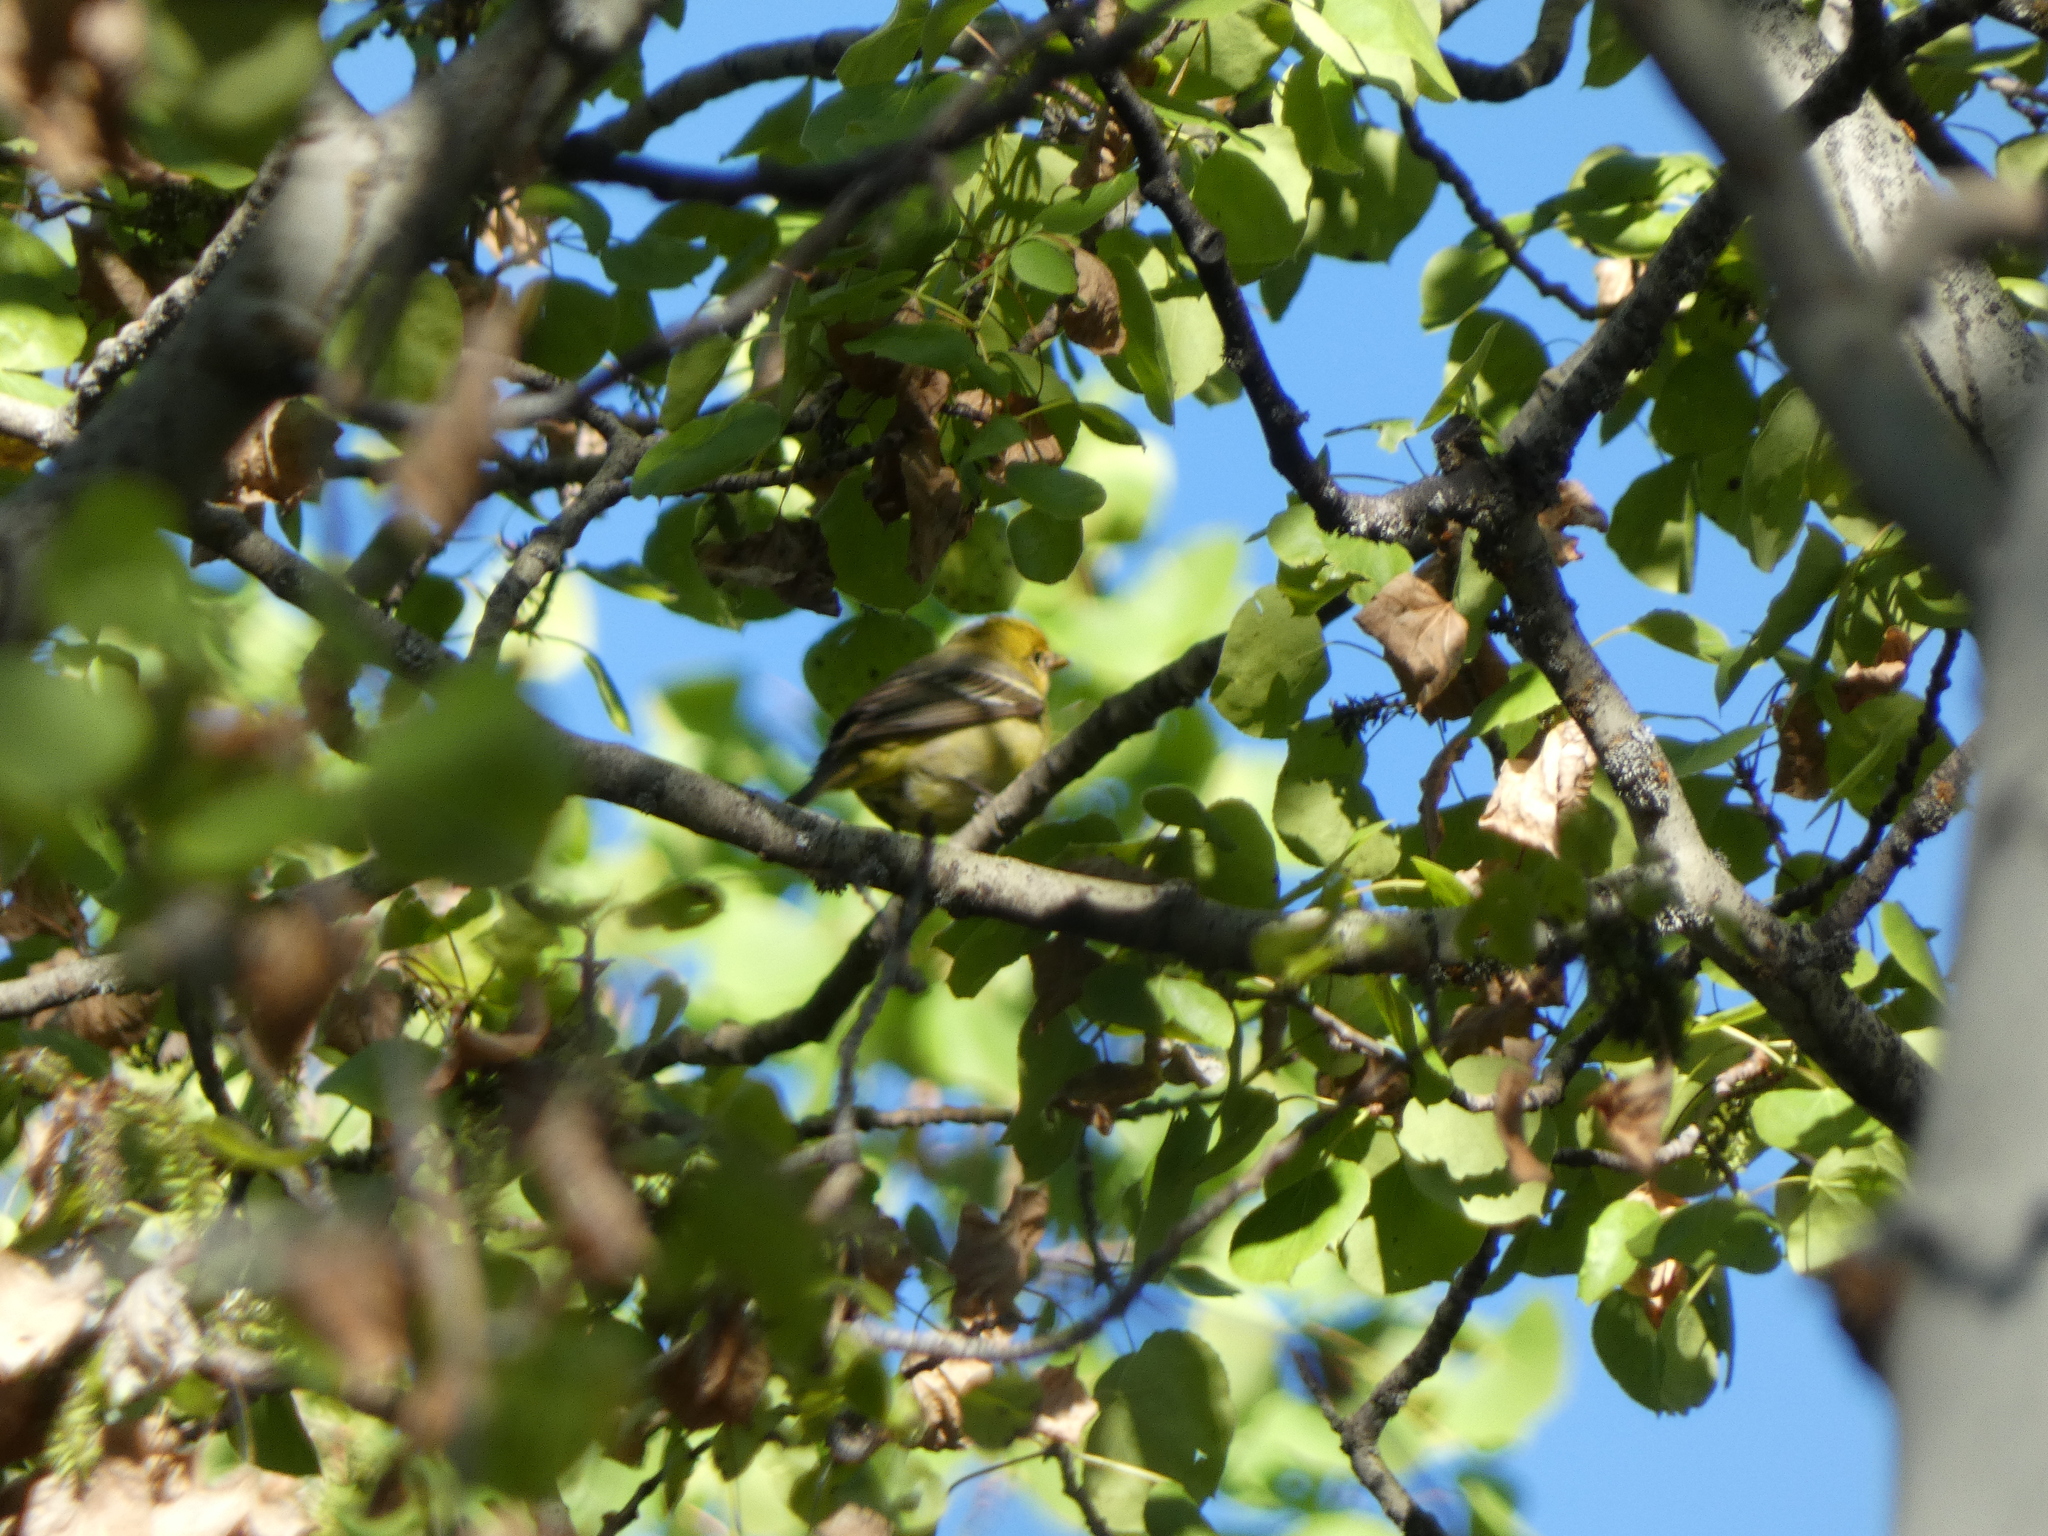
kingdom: Animalia
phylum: Chordata
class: Aves
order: Passeriformes
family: Cardinalidae
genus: Piranga
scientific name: Piranga ludoviciana
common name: Western tanager
